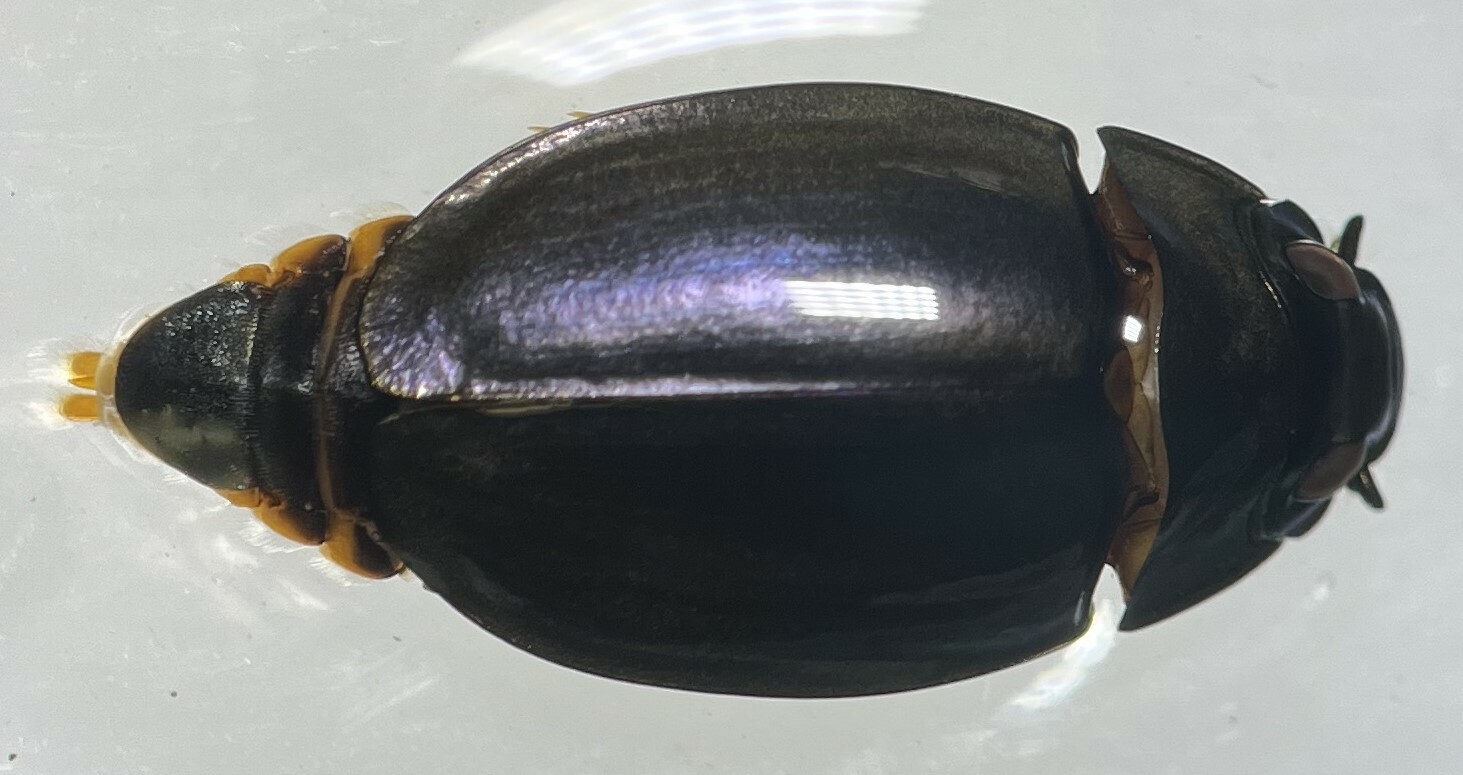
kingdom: Animalia
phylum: Arthropoda
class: Insecta
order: Coleoptera
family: Gyrinidae
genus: Dineutus
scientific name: Dineutus carolinus
